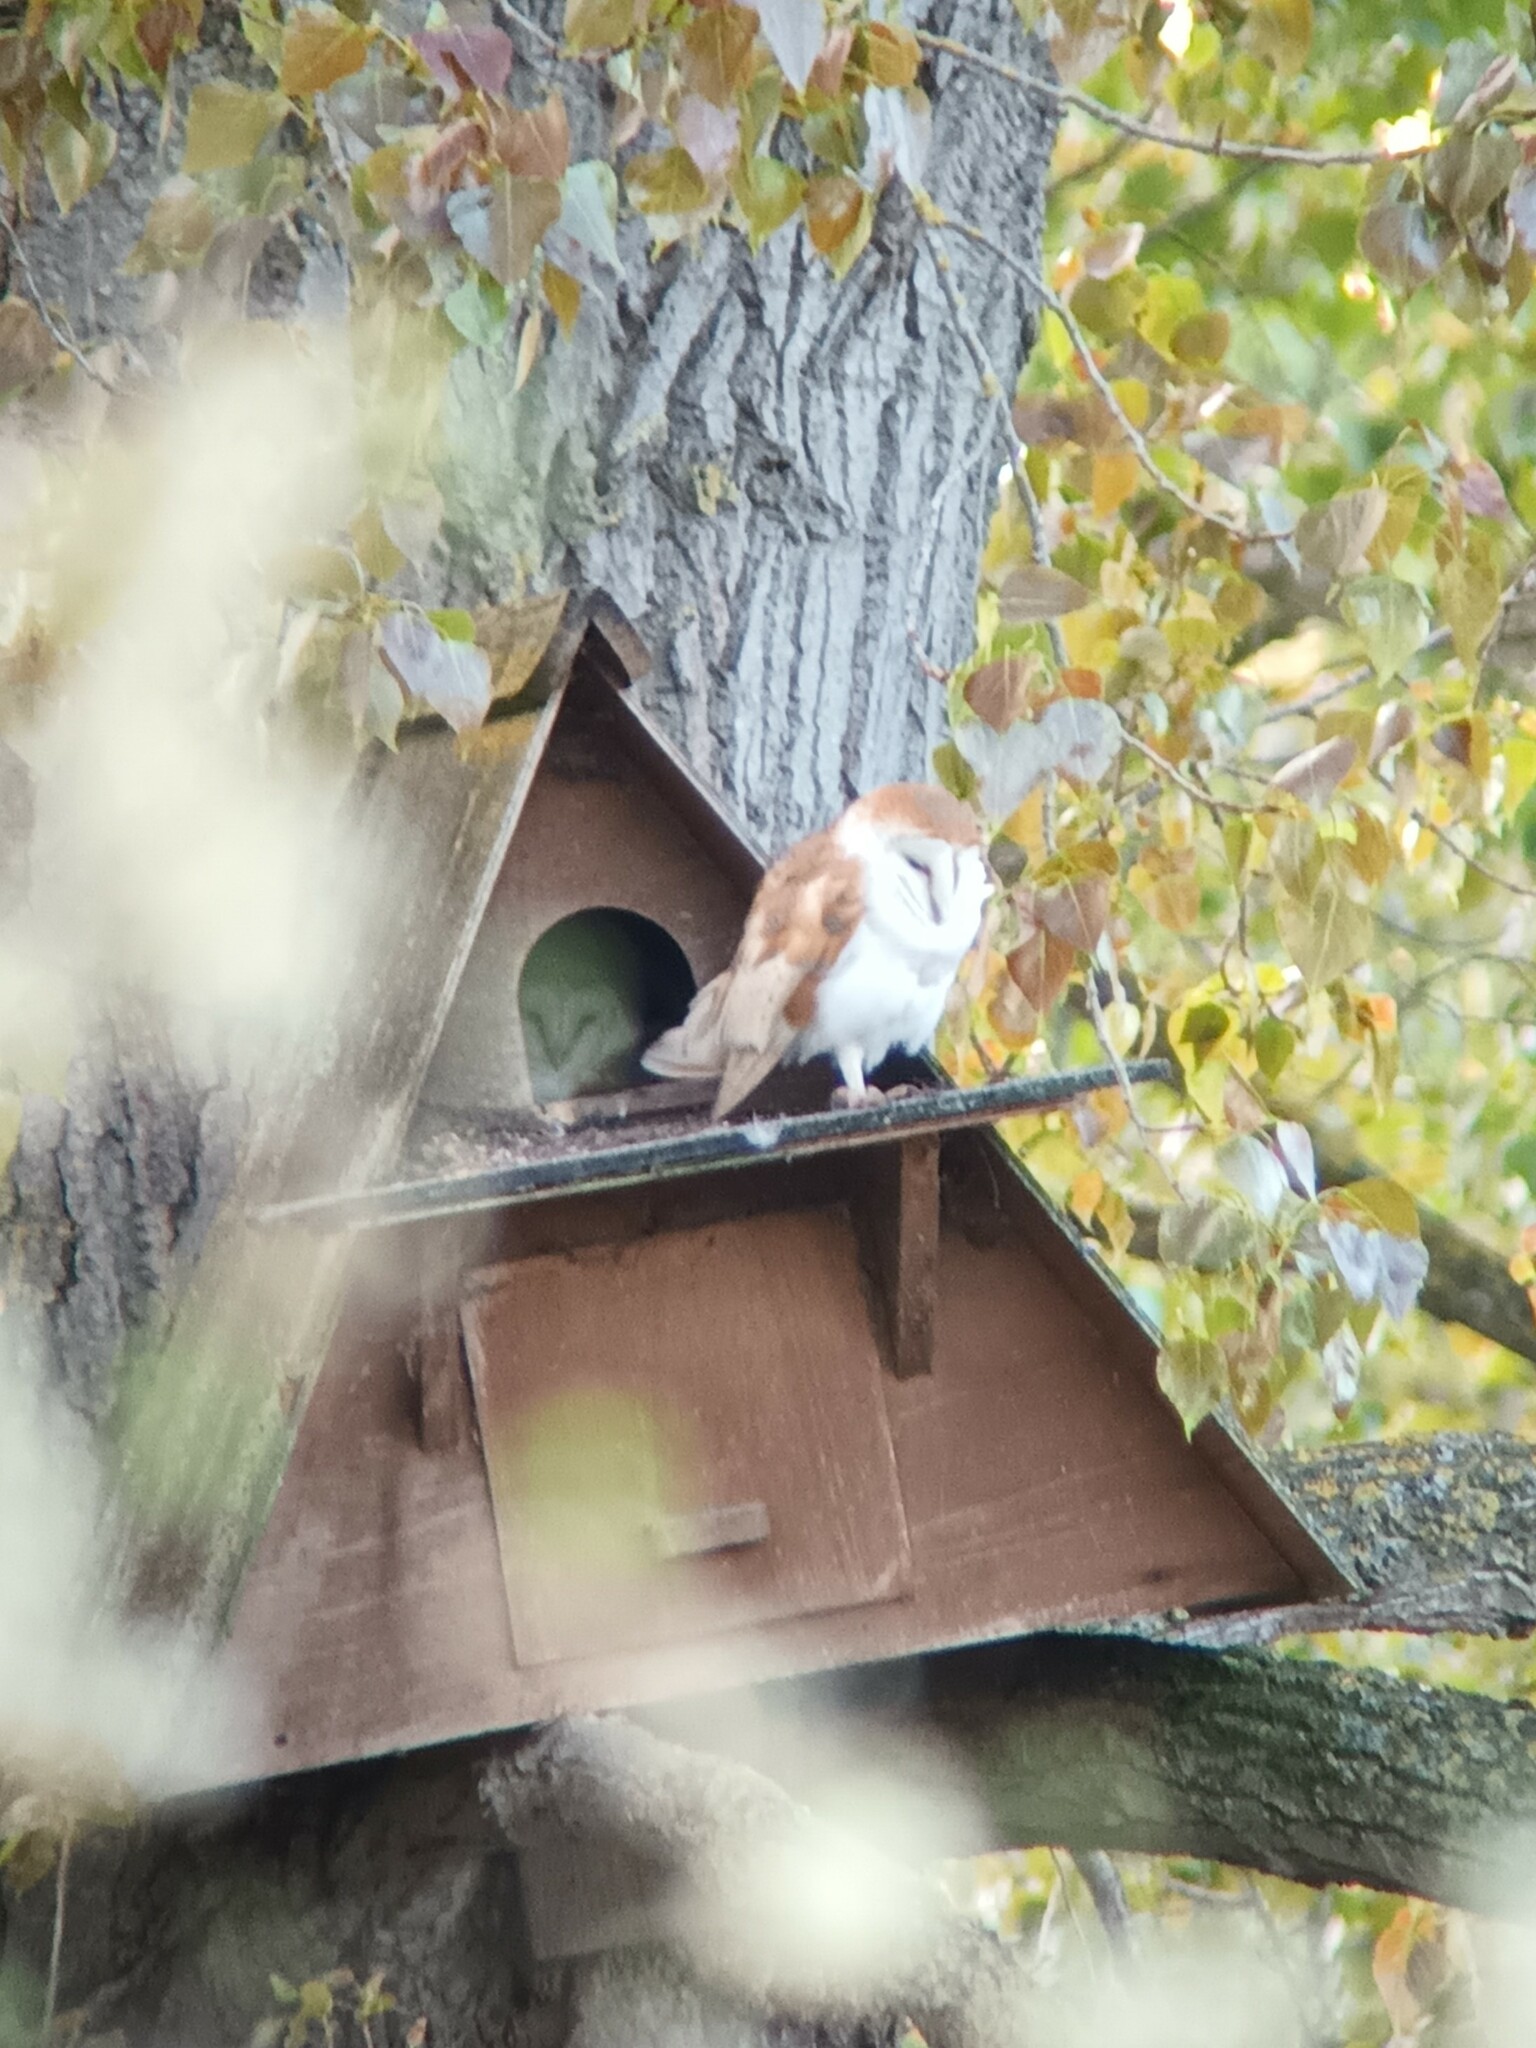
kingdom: Animalia
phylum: Chordata
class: Aves
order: Strigiformes
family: Tytonidae
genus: Tyto
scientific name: Tyto alba
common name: Barn owl
